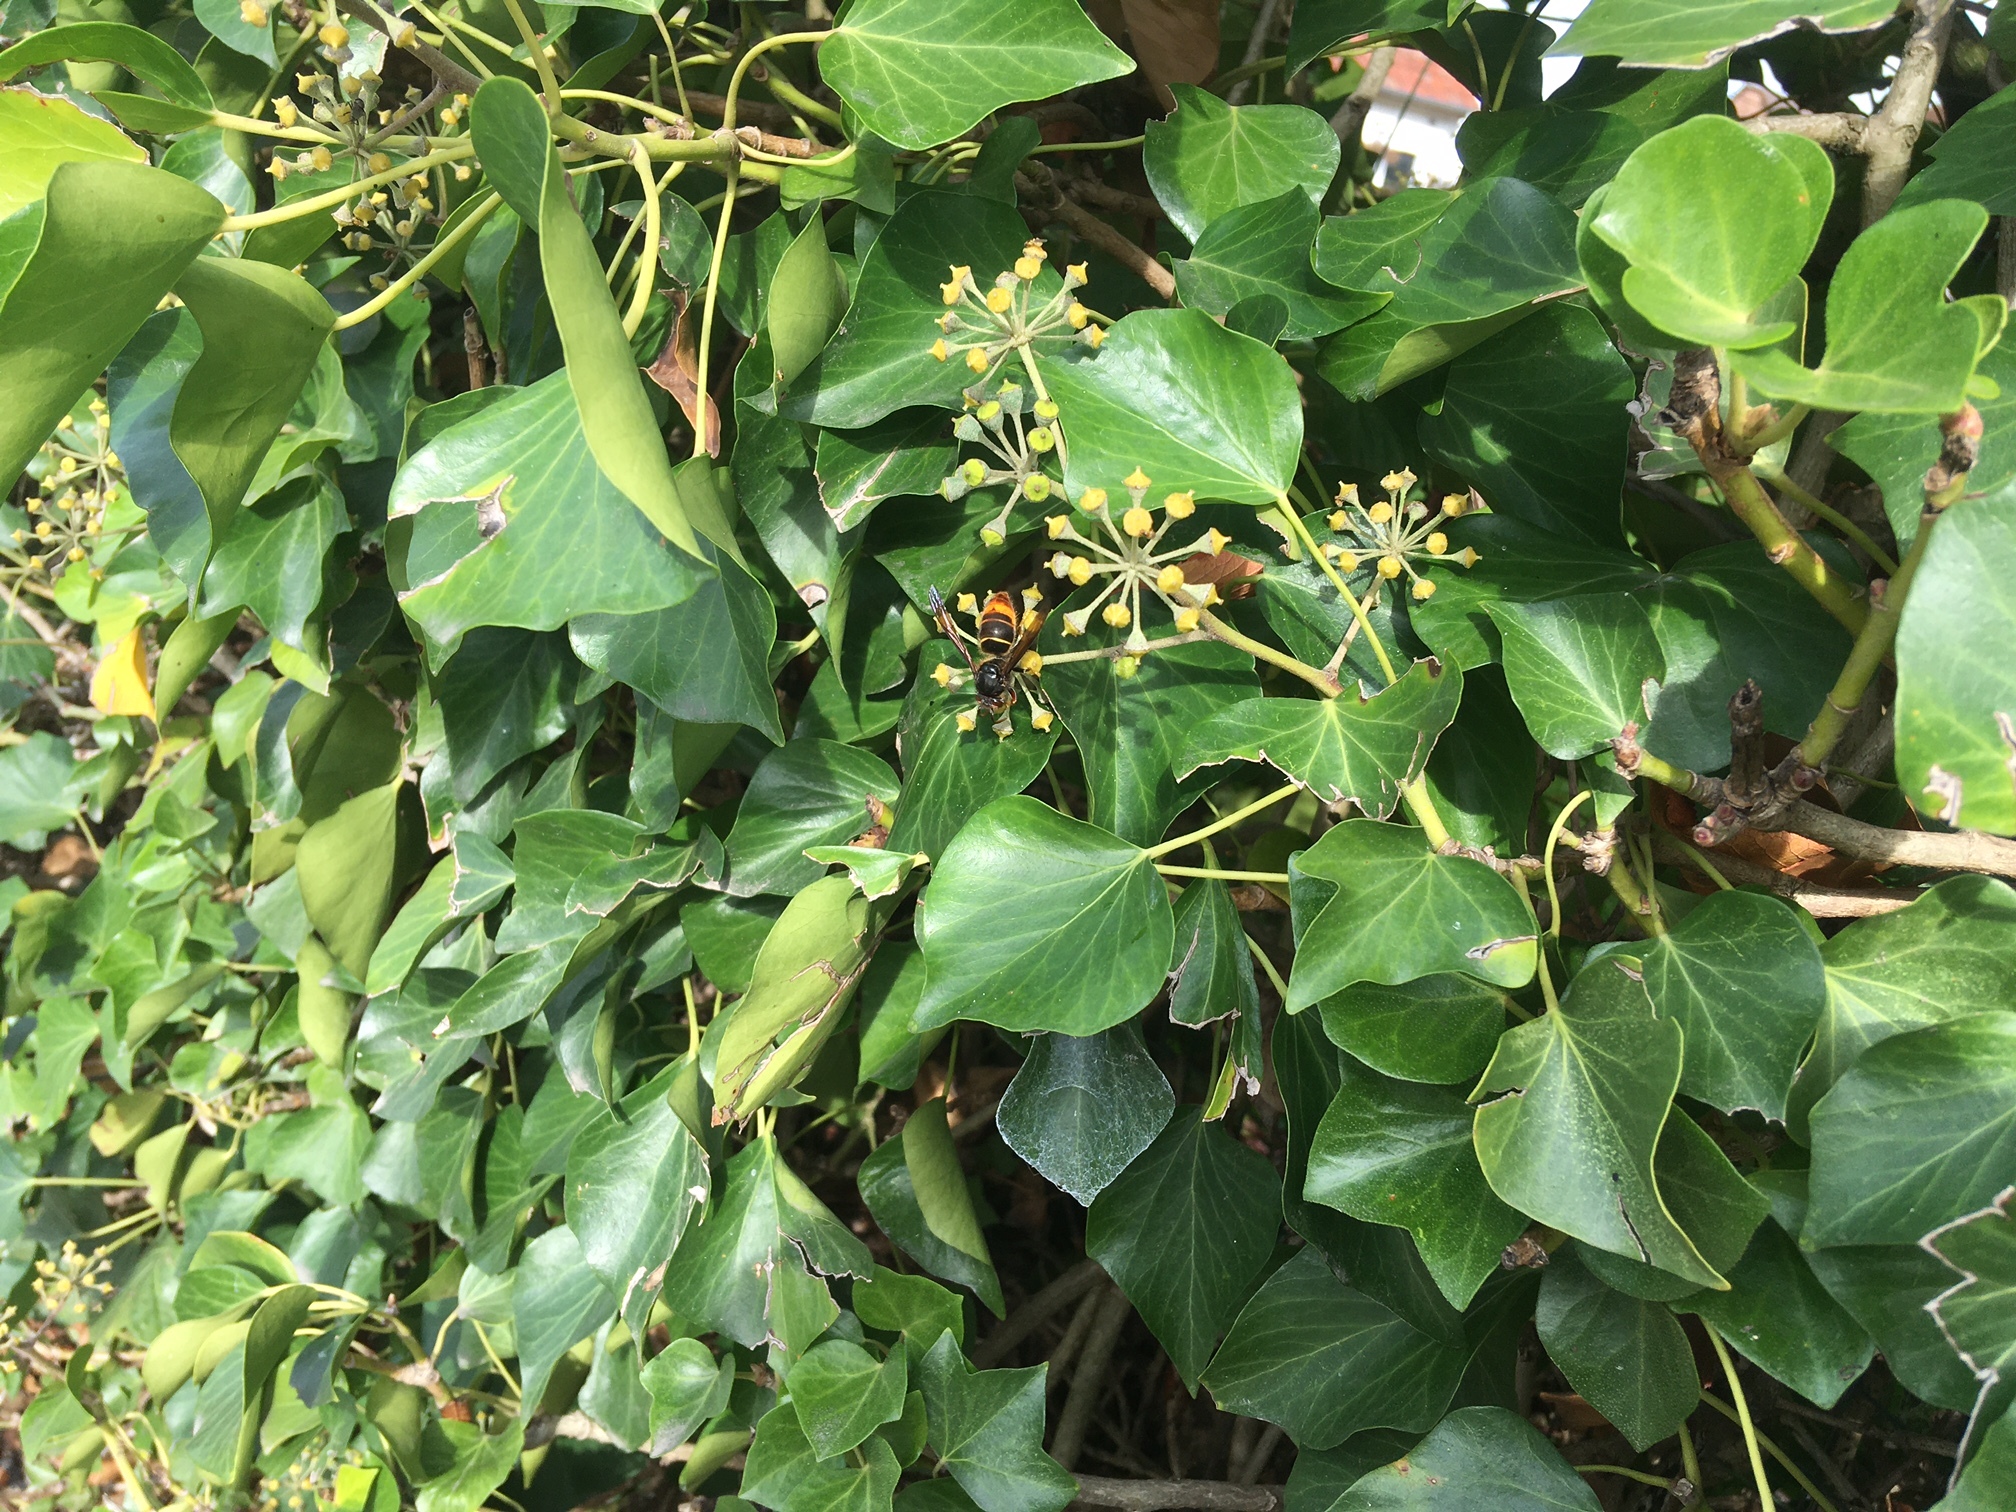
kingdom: Animalia
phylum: Arthropoda
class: Insecta
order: Hymenoptera
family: Vespidae
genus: Vespa
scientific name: Vespa velutina
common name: Asian hornet
